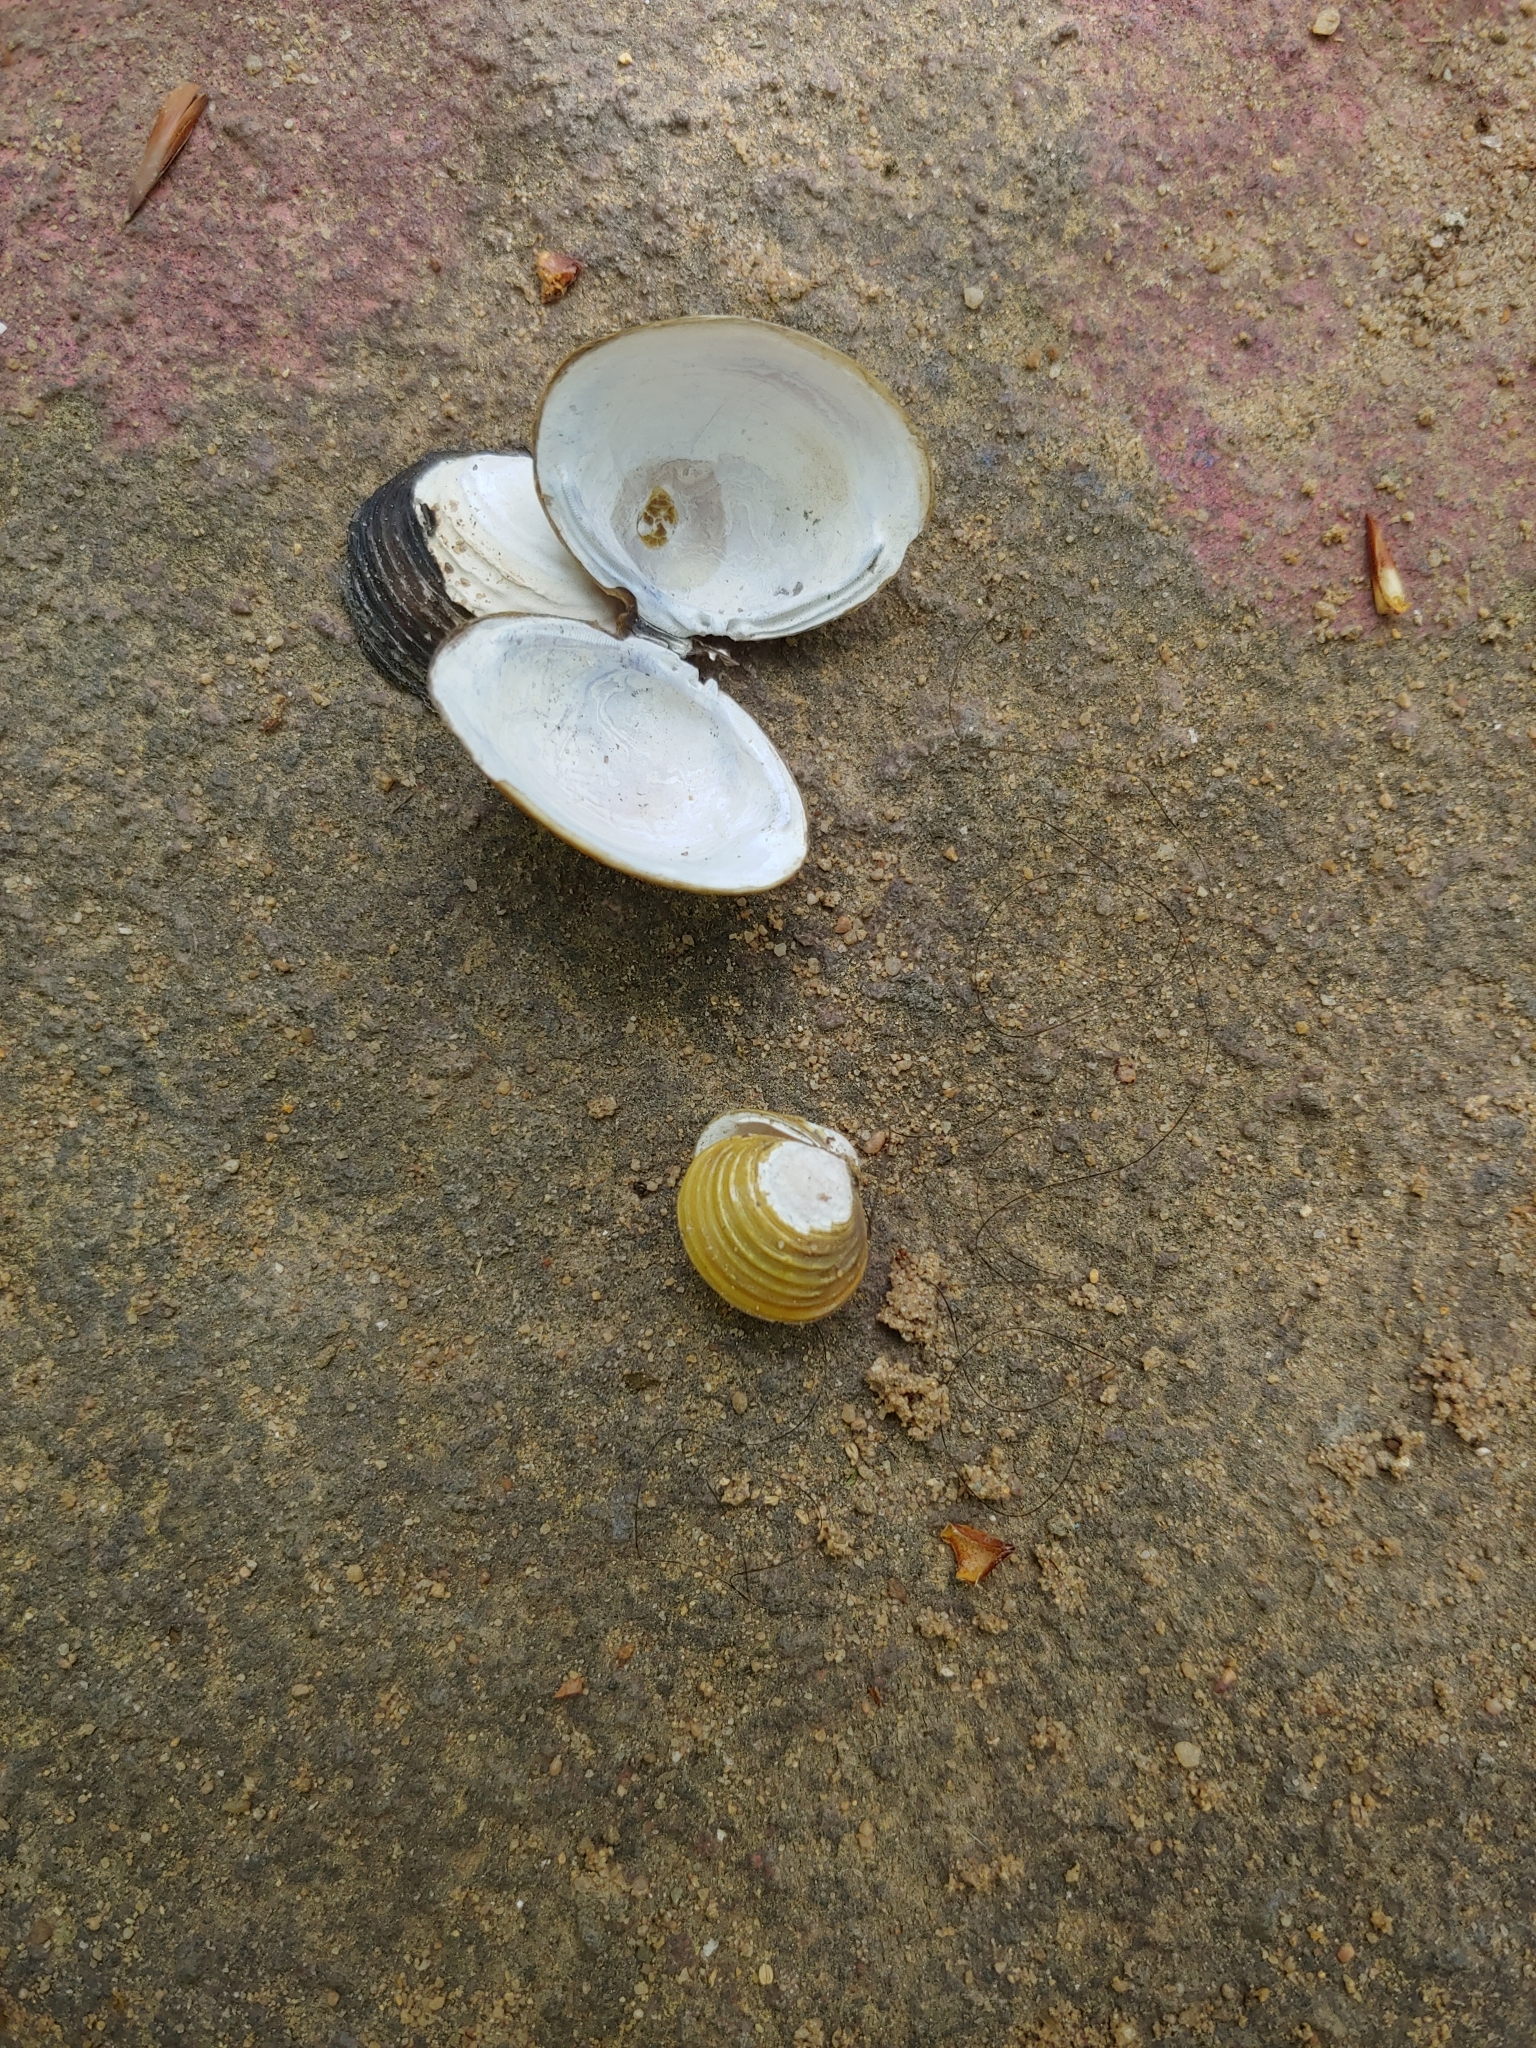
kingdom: Animalia
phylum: Mollusca
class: Bivalvia
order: Venerida
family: Cyrenidae
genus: Corbicula
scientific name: Corbicula fluminea
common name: Asian clam
